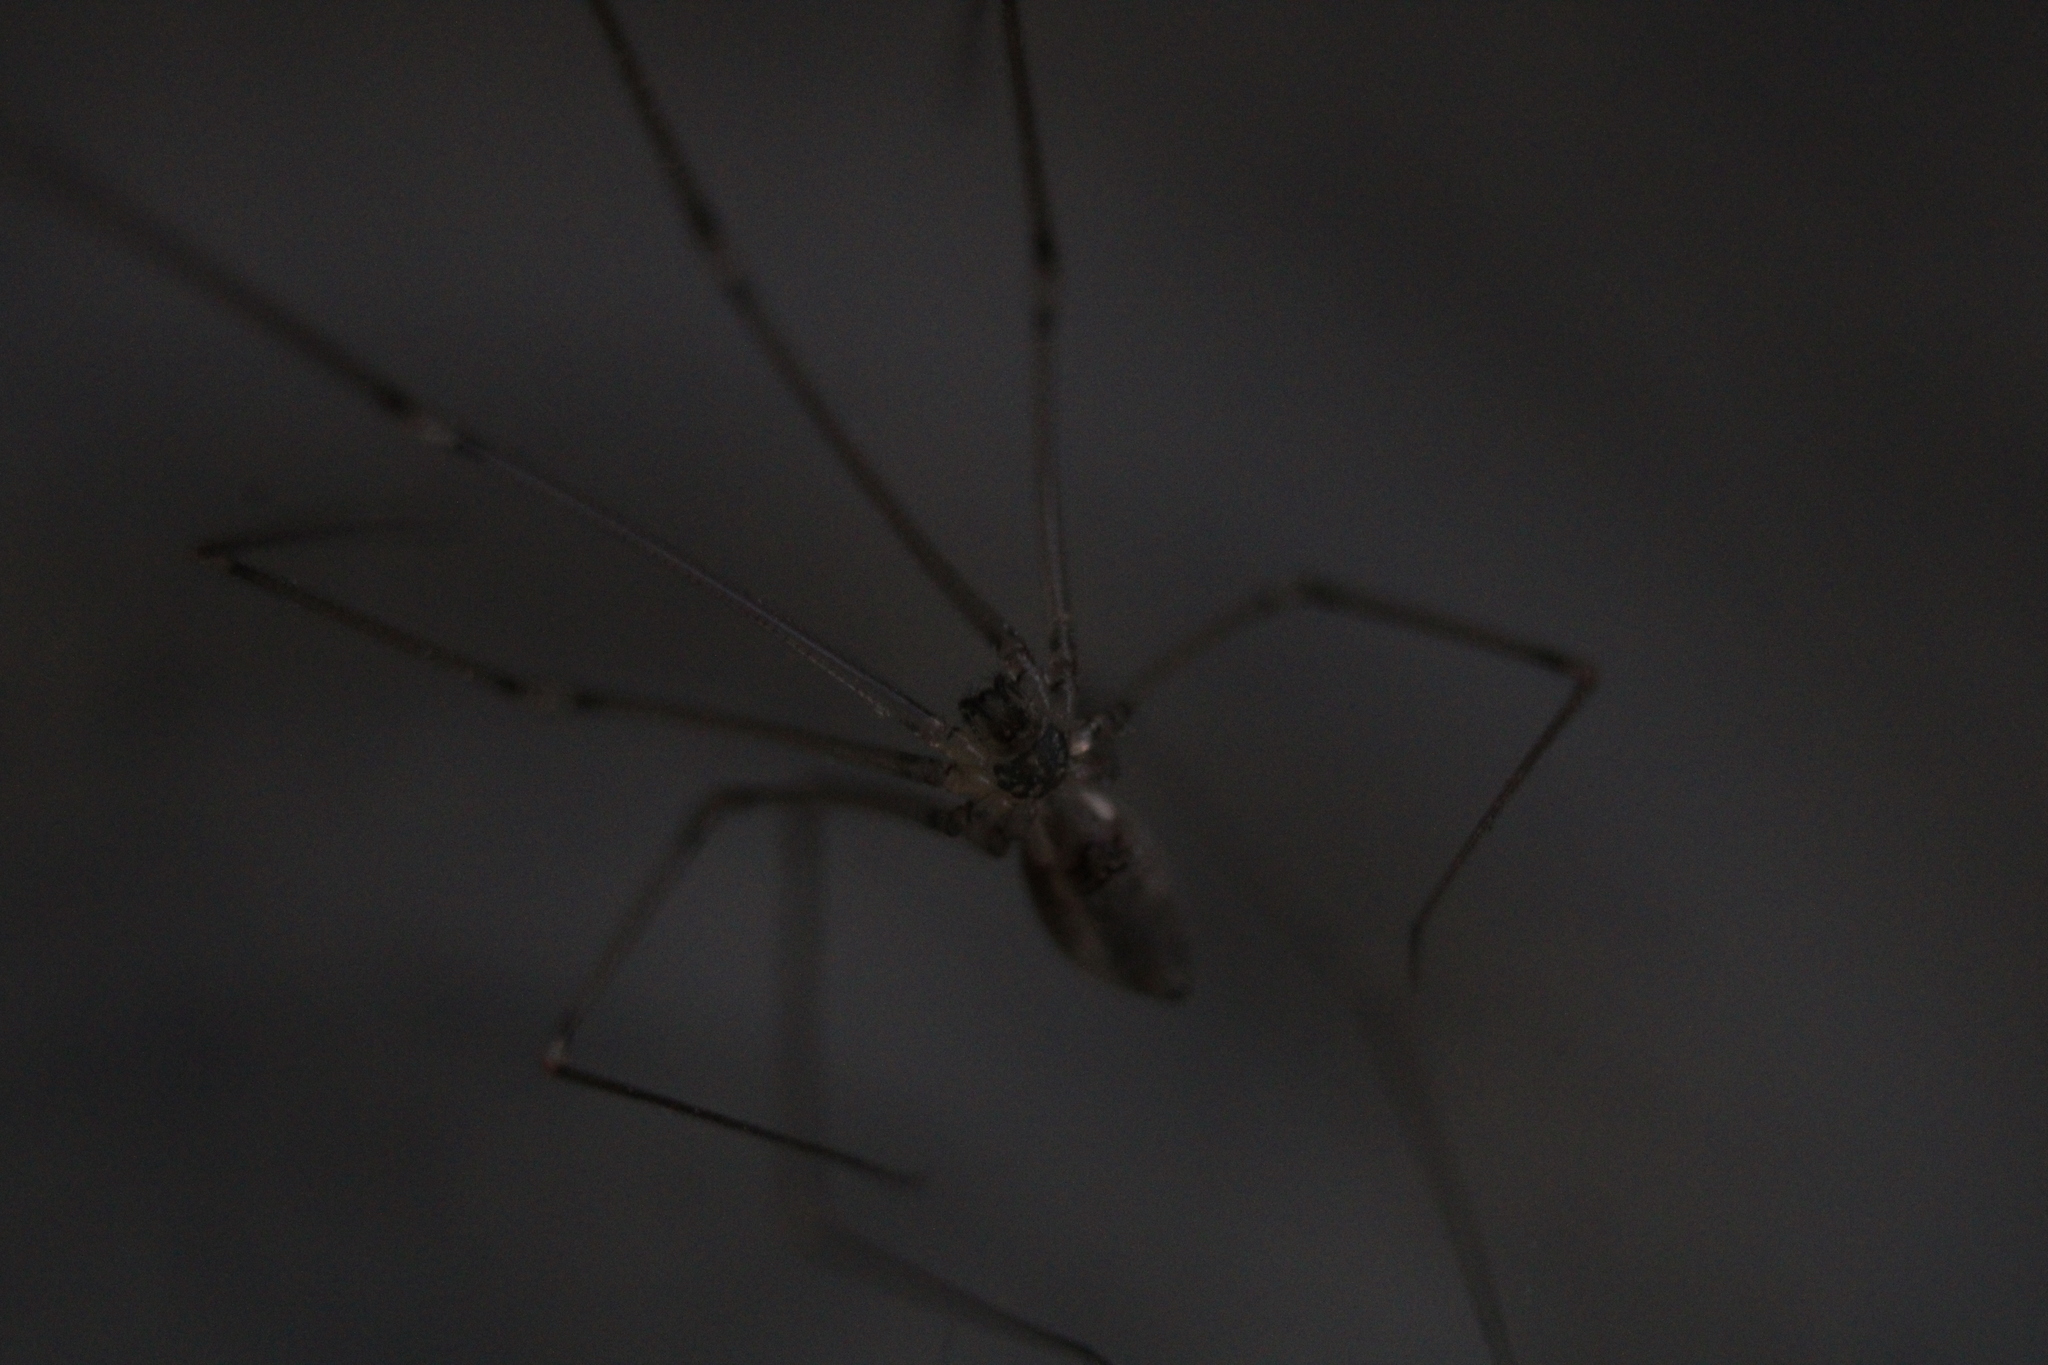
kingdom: Animalia
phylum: Arthropoda
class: Arachnida
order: Araneae
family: Pholcidae
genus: Pholcus
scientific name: Pholcus manueli
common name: Cellar spider
